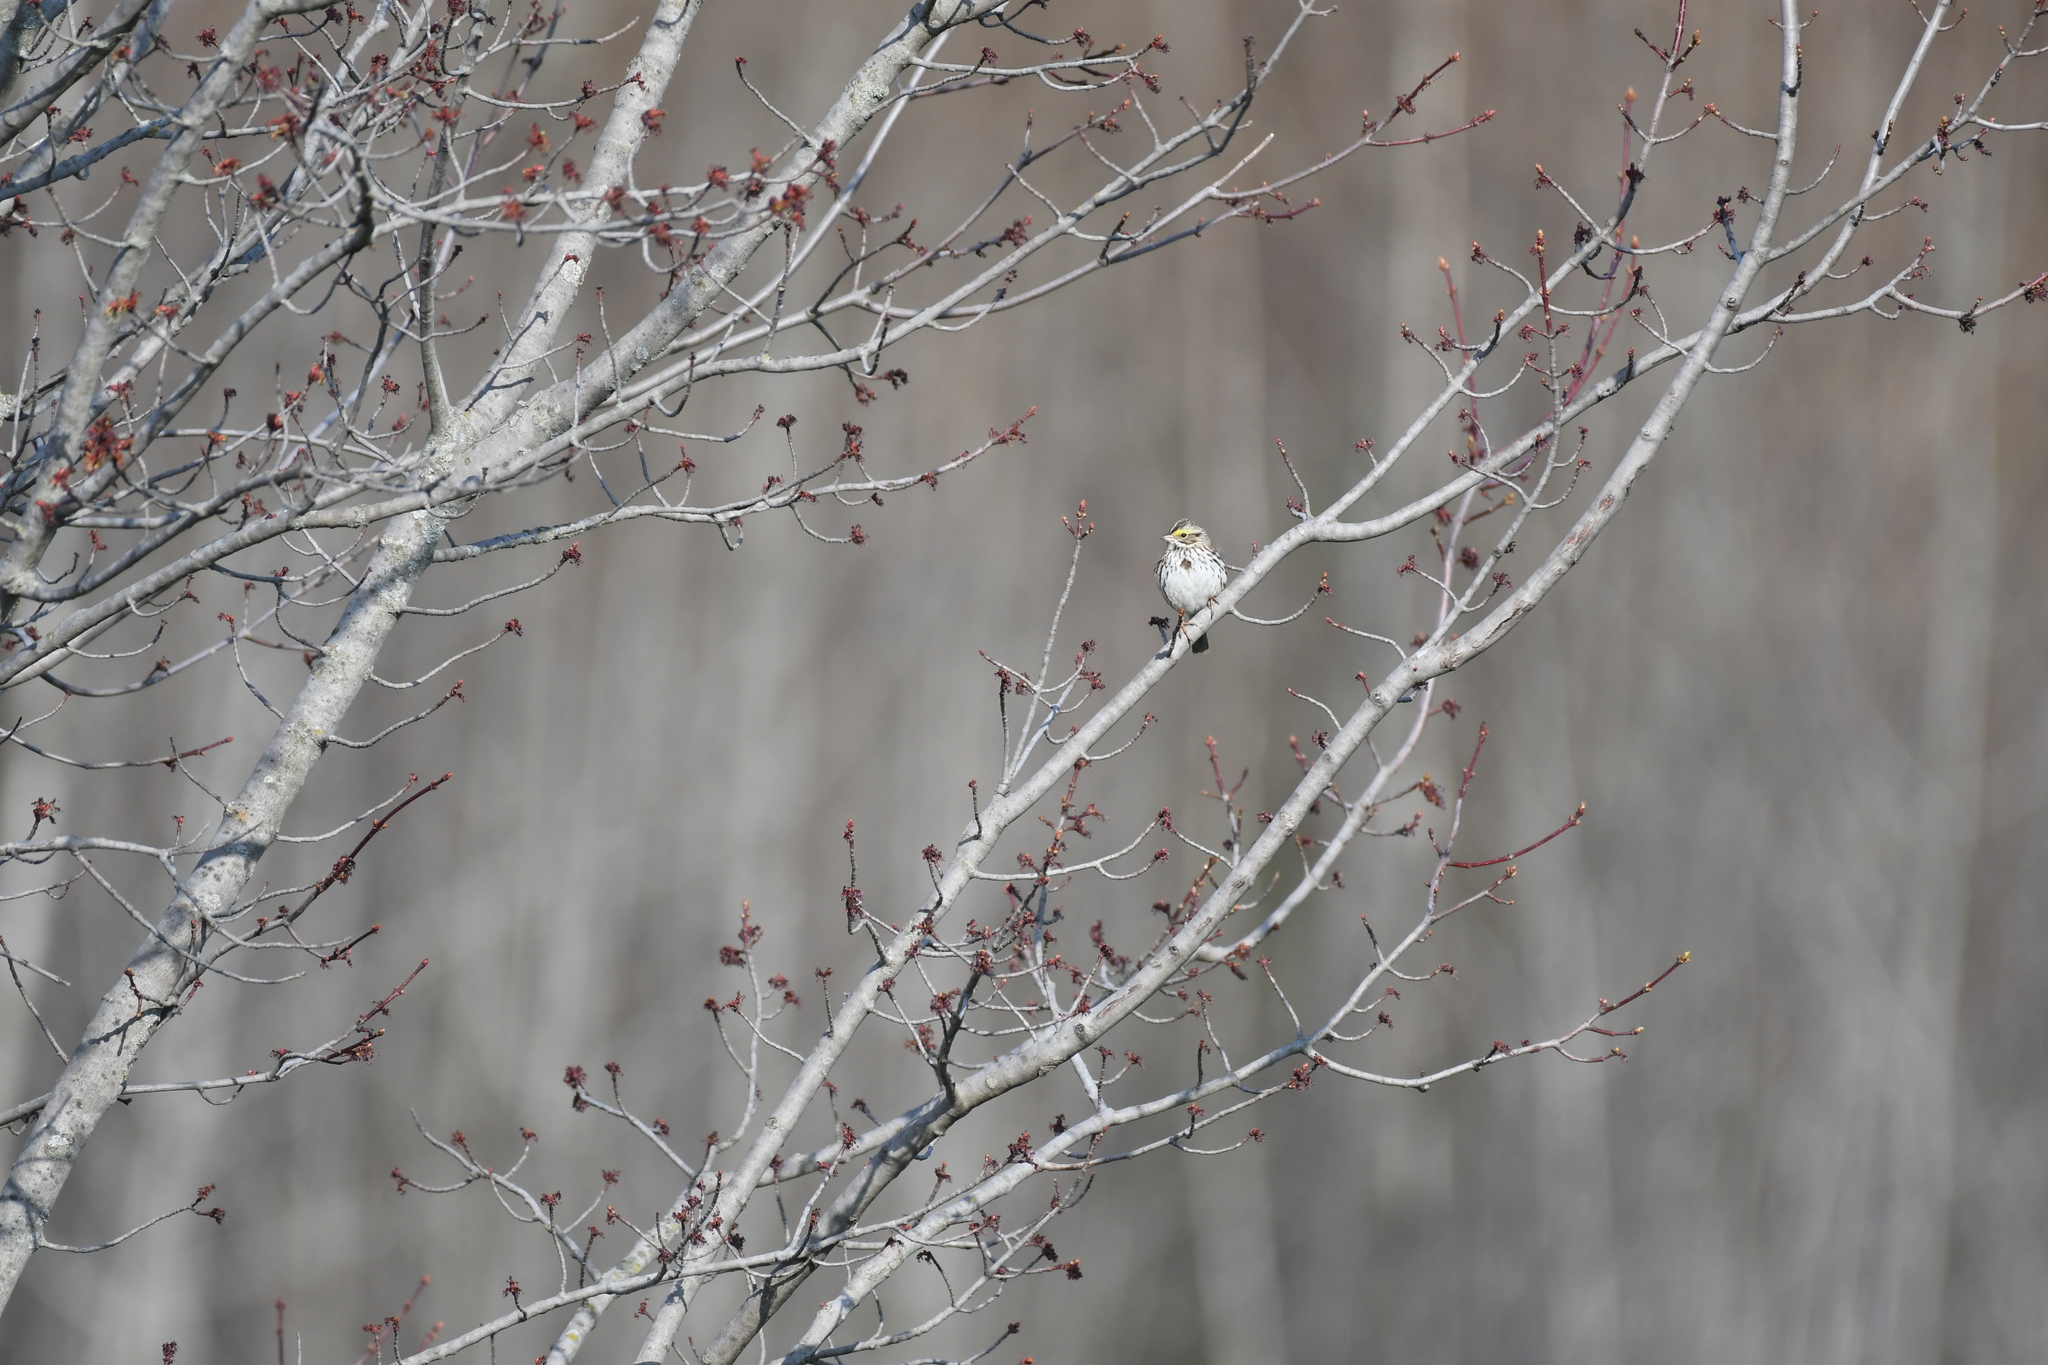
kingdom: Animalia
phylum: Chordata
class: Aves
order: Passeriformes
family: Passerellidae
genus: Passerculus
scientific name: Passerculus sandwichensis
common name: Savannah sparrow
